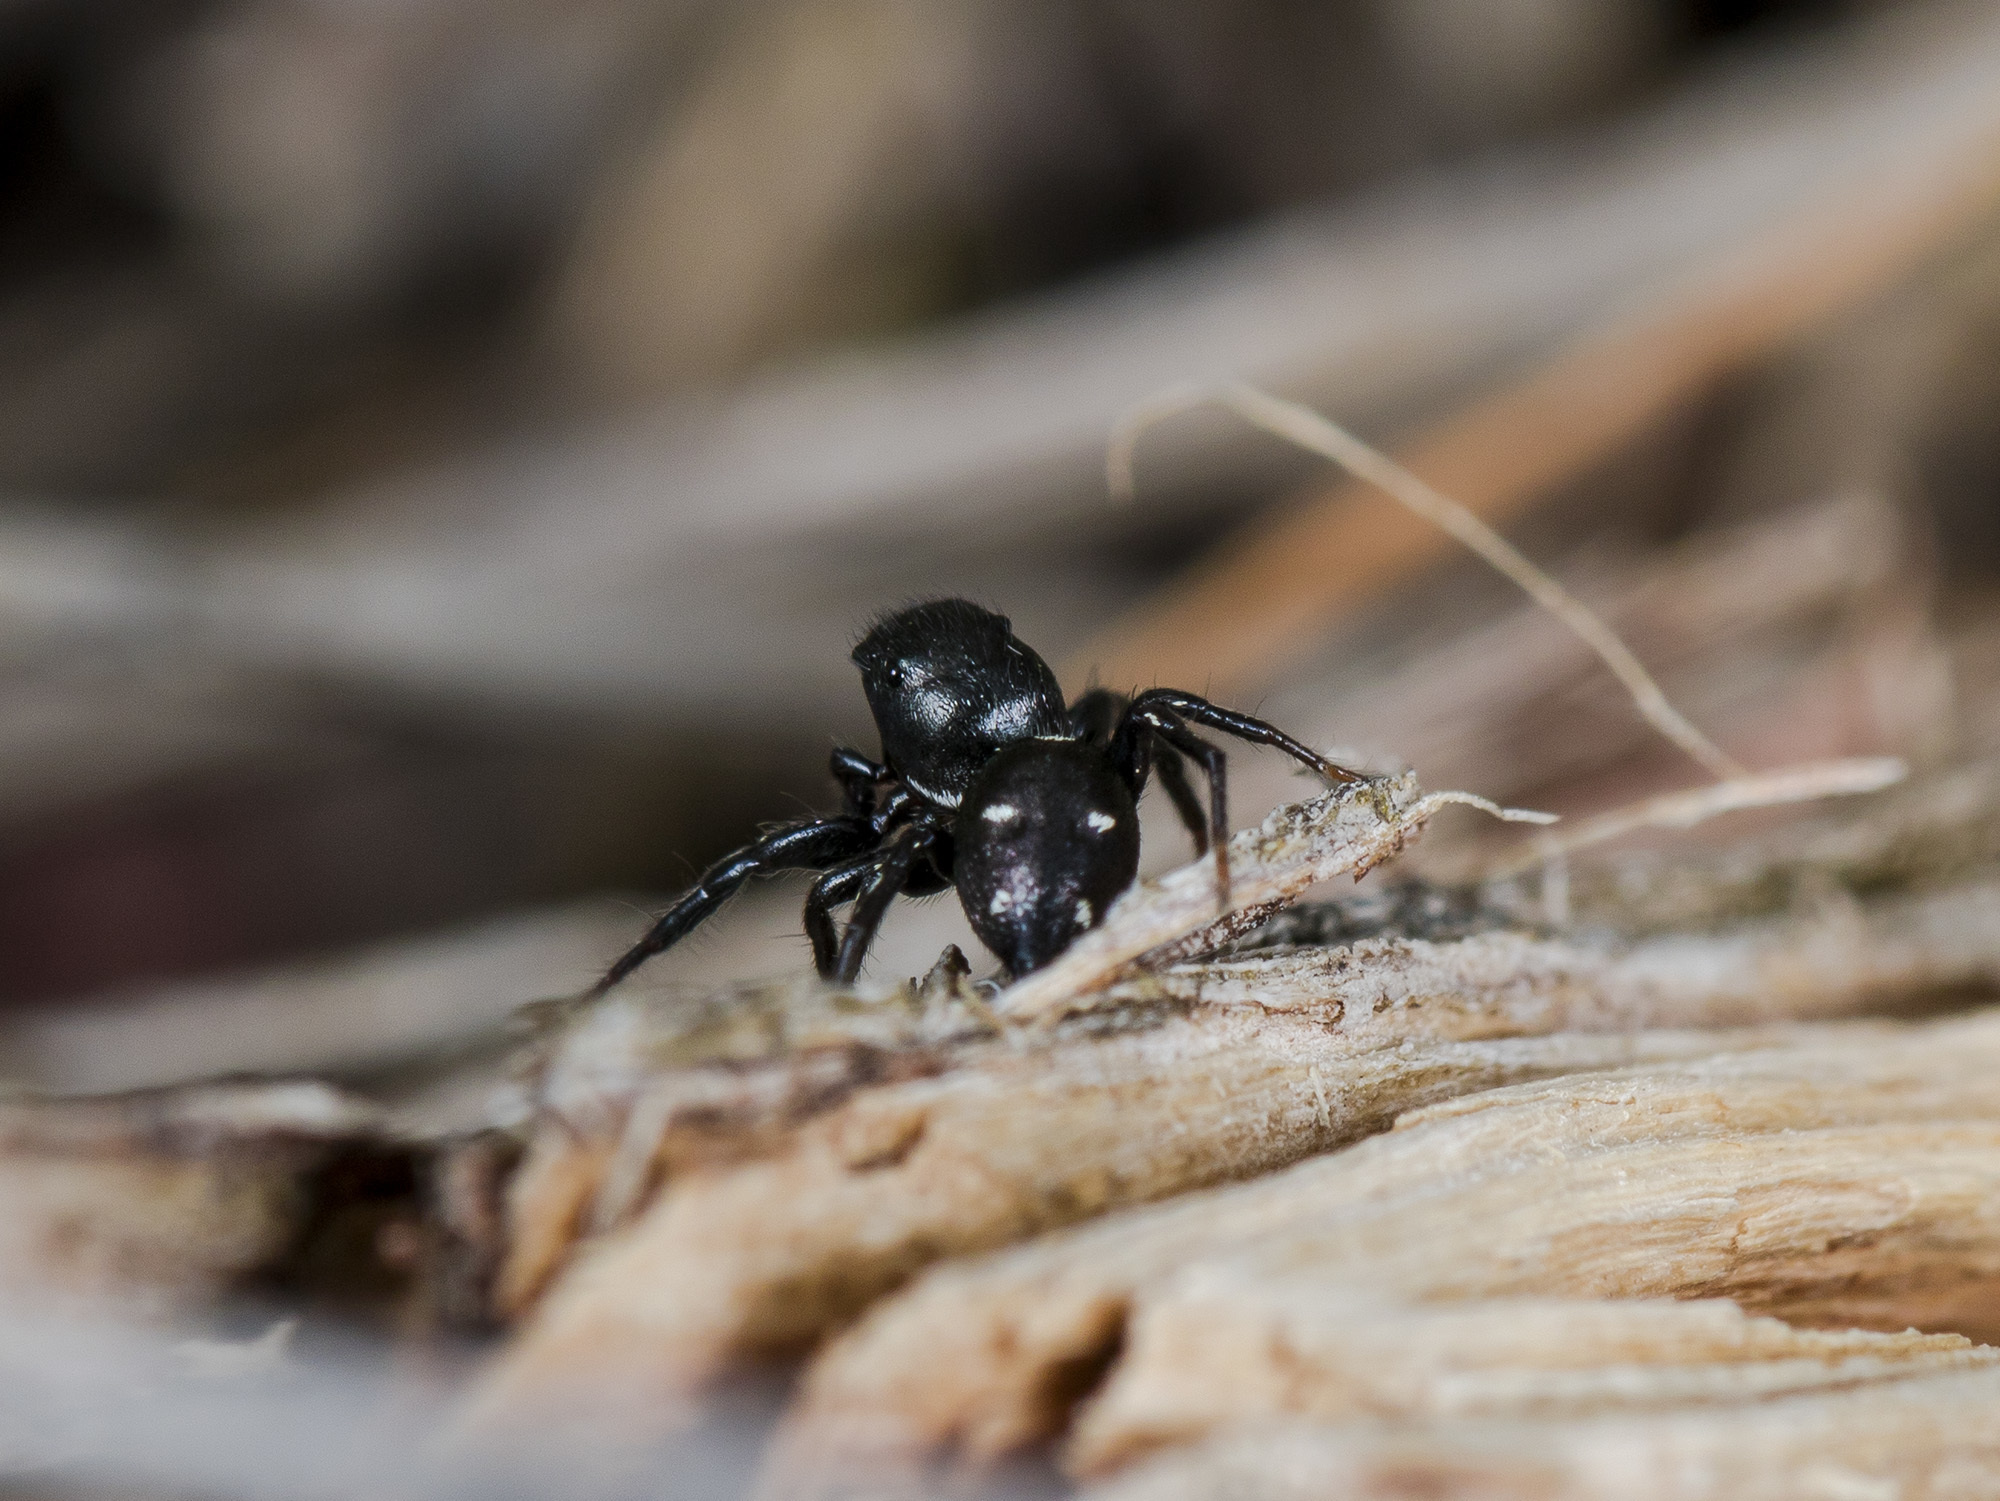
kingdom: Animalia
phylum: Arthropoda
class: Arachnida
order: Araneae
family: Salticidae
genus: Heliophanus
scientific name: Heliophanus chovdensis
